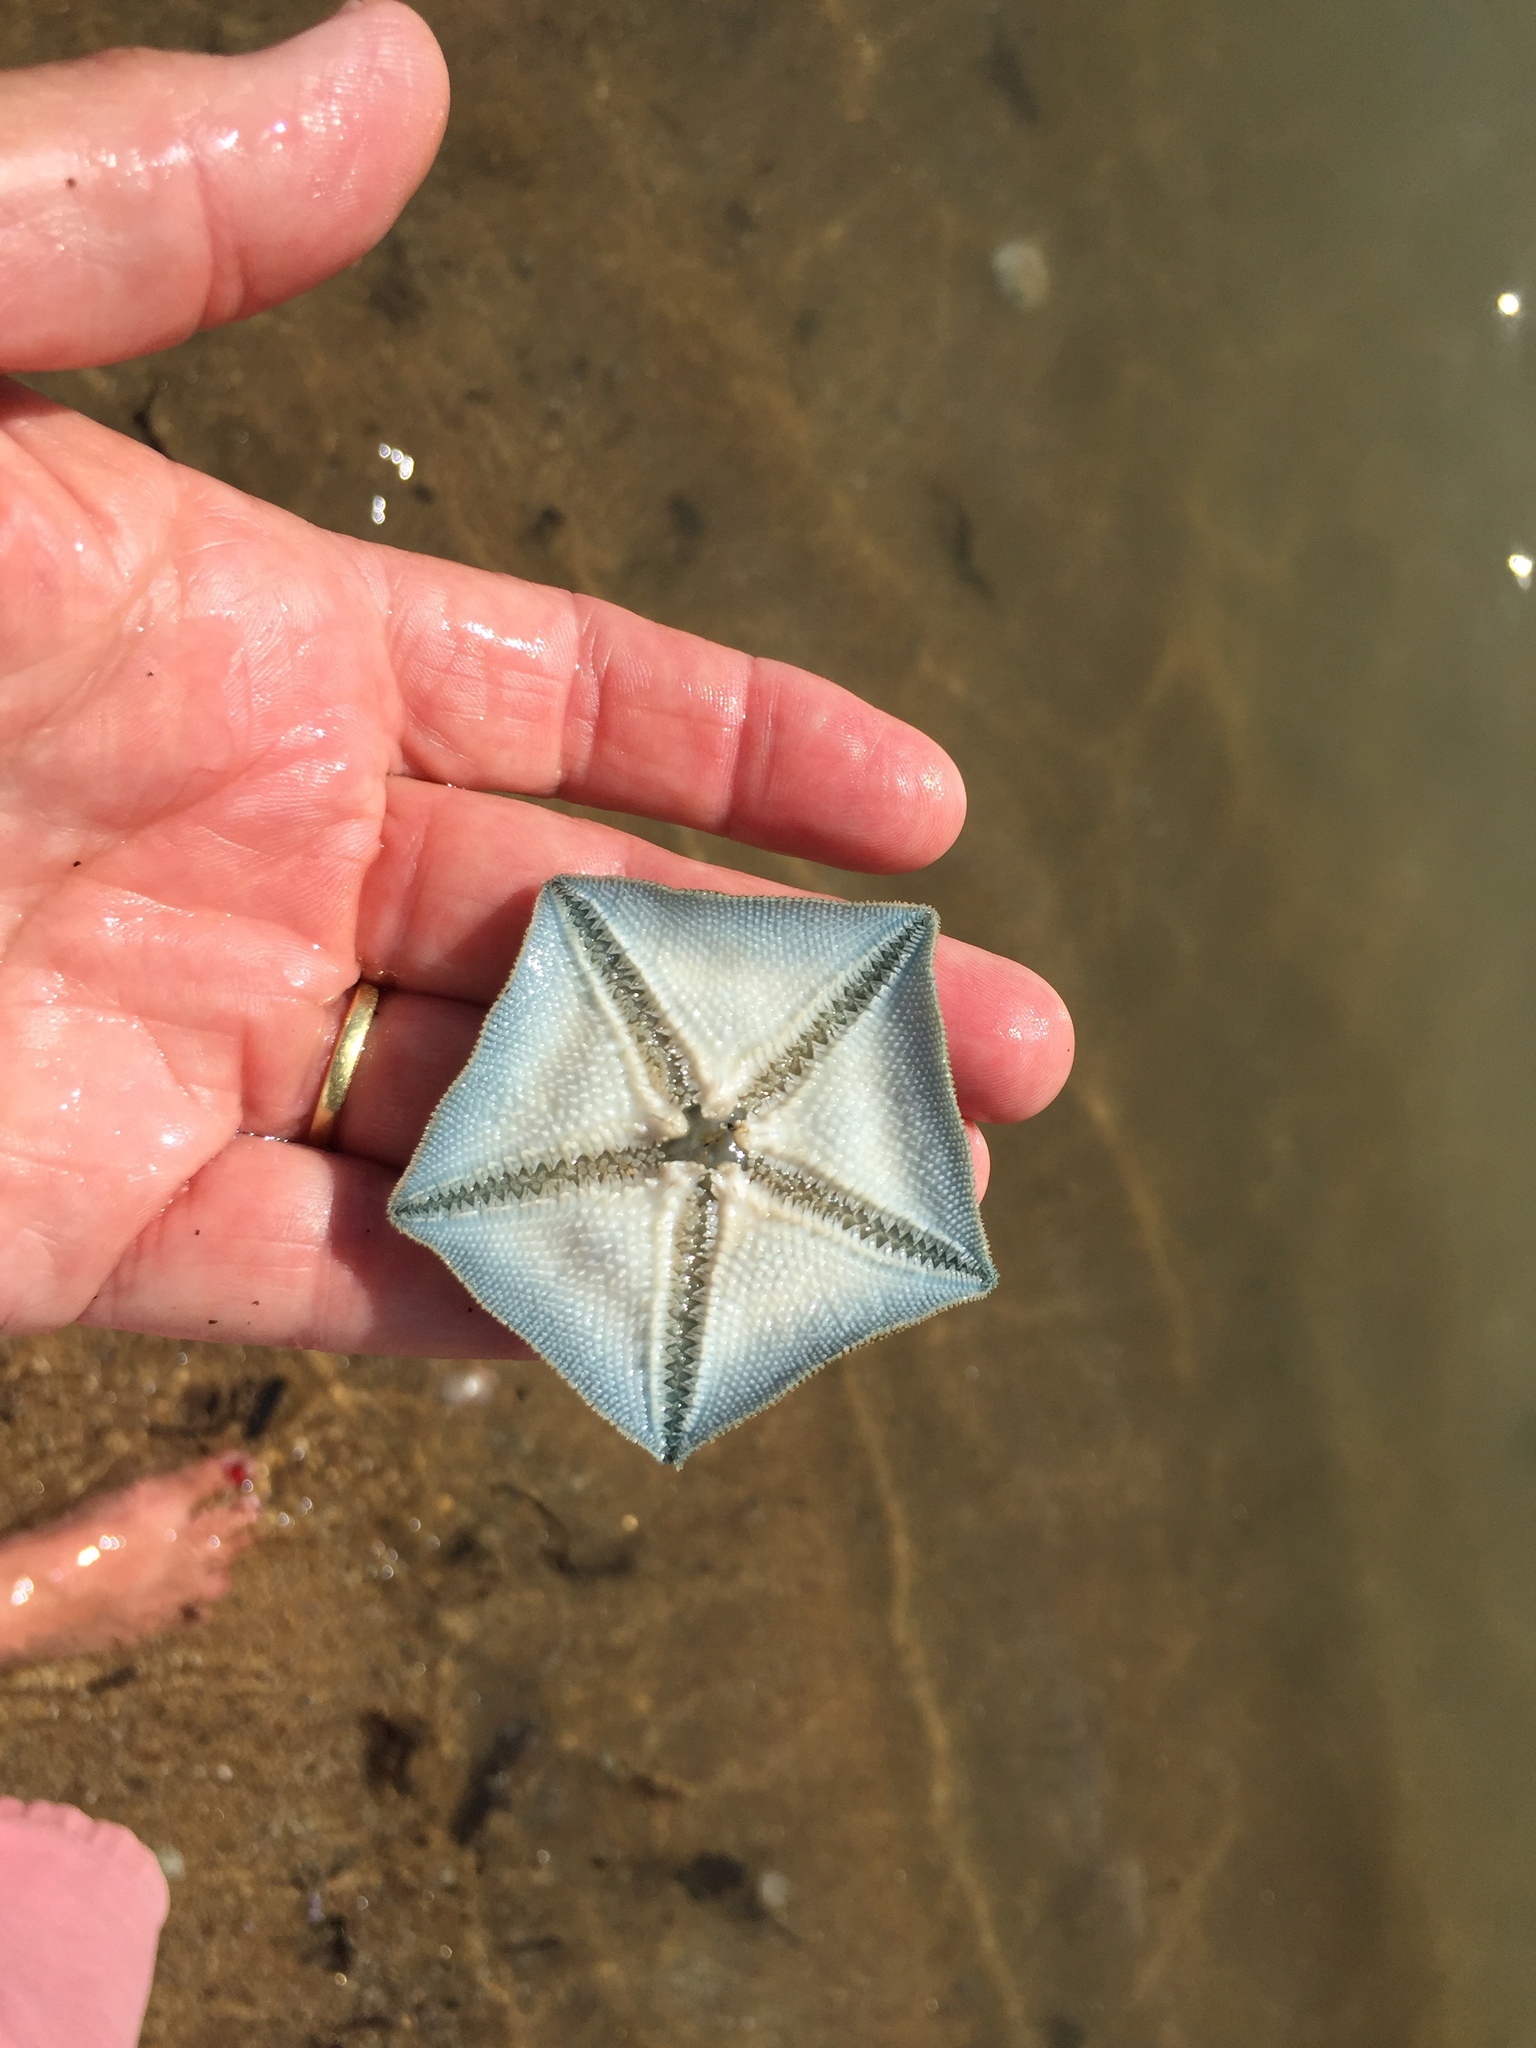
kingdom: Animalia
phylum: Echinodermata
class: Asteroidea
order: Valvatida
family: Asterinidae
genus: Patiriella
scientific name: Patiriella regularis
